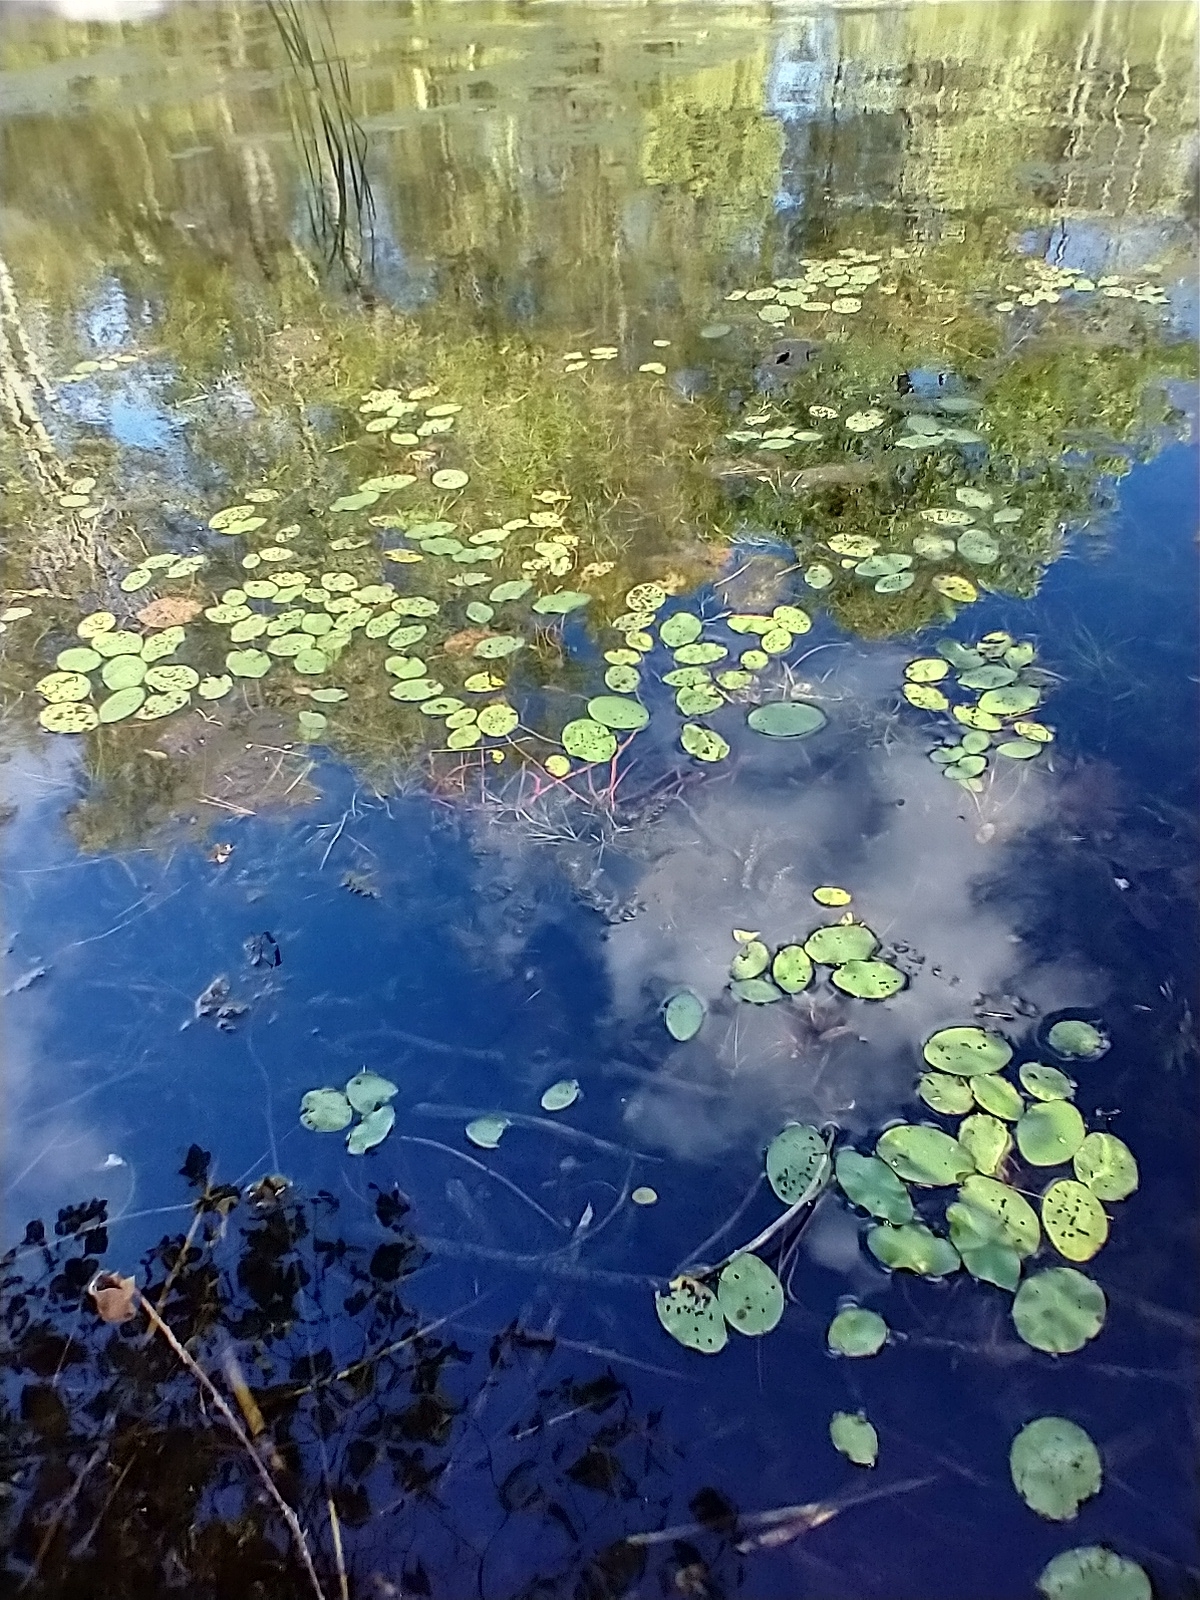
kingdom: Plantae
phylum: Tracheophyta
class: Magnoliopsida
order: Nymphaeales
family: Cabombaceae
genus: Brasenia
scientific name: Brasenia schreberi
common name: Water-shield
